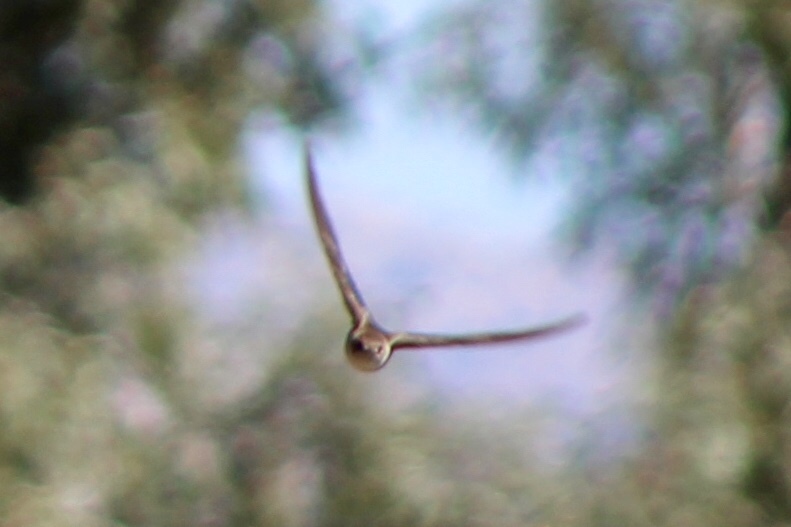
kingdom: Animalia
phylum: Chordata
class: Aves
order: Passeriformes
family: Hirundinidae
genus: Stelgidopteryx
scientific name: Stelgidopteryx serripennis
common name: Northern rough-winged swallow
